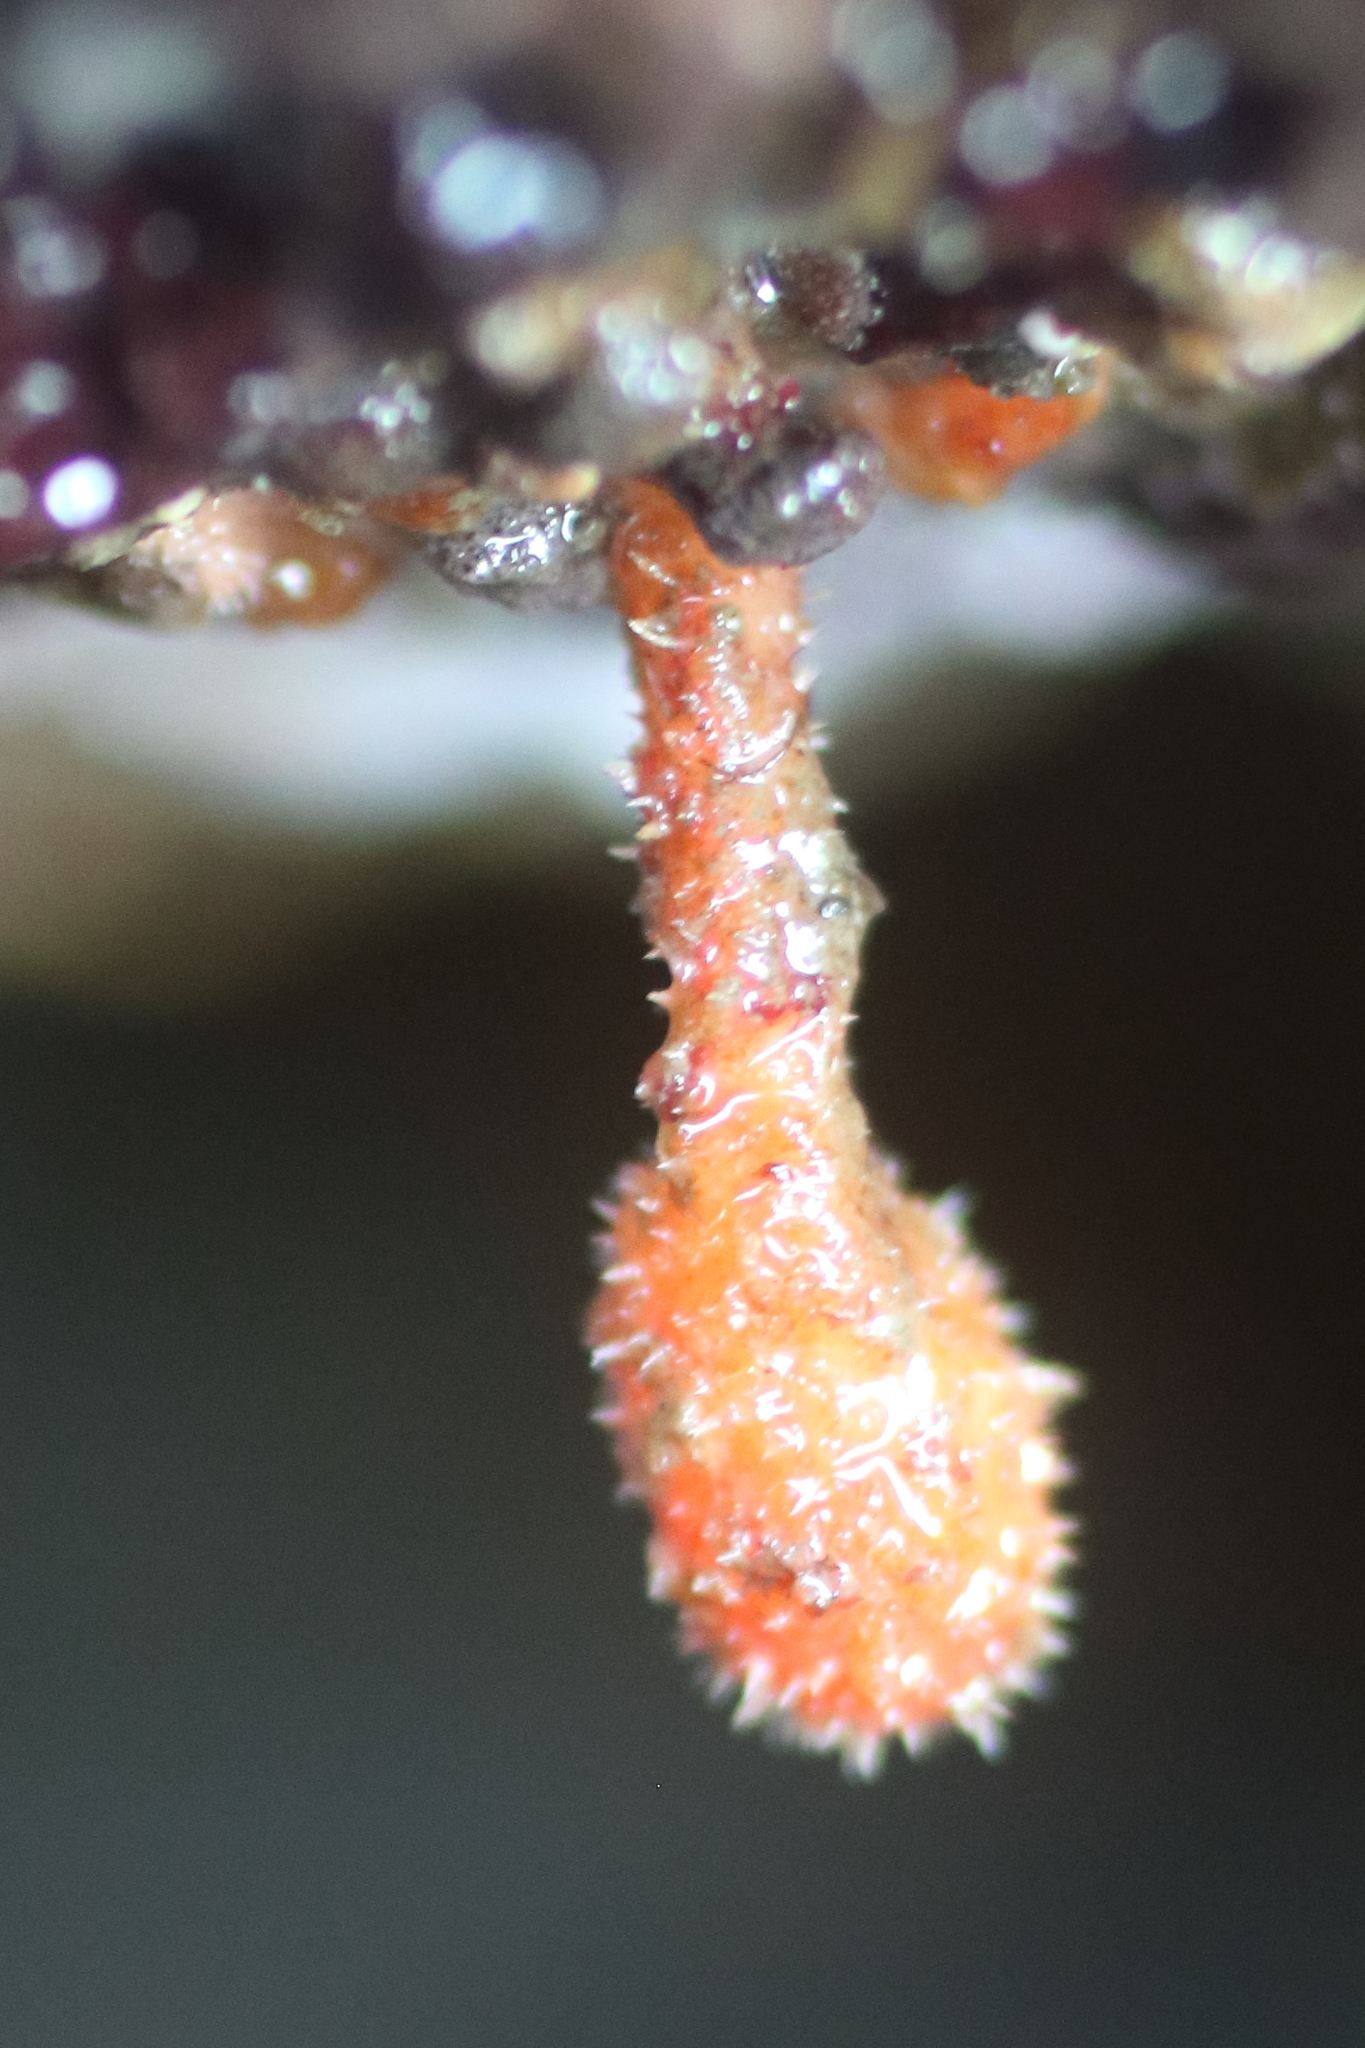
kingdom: Animalia
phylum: Chordata
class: Ascidiacea
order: Stolidobranchia
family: Pyuridae
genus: Boltenia
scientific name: Boltenia villosa
